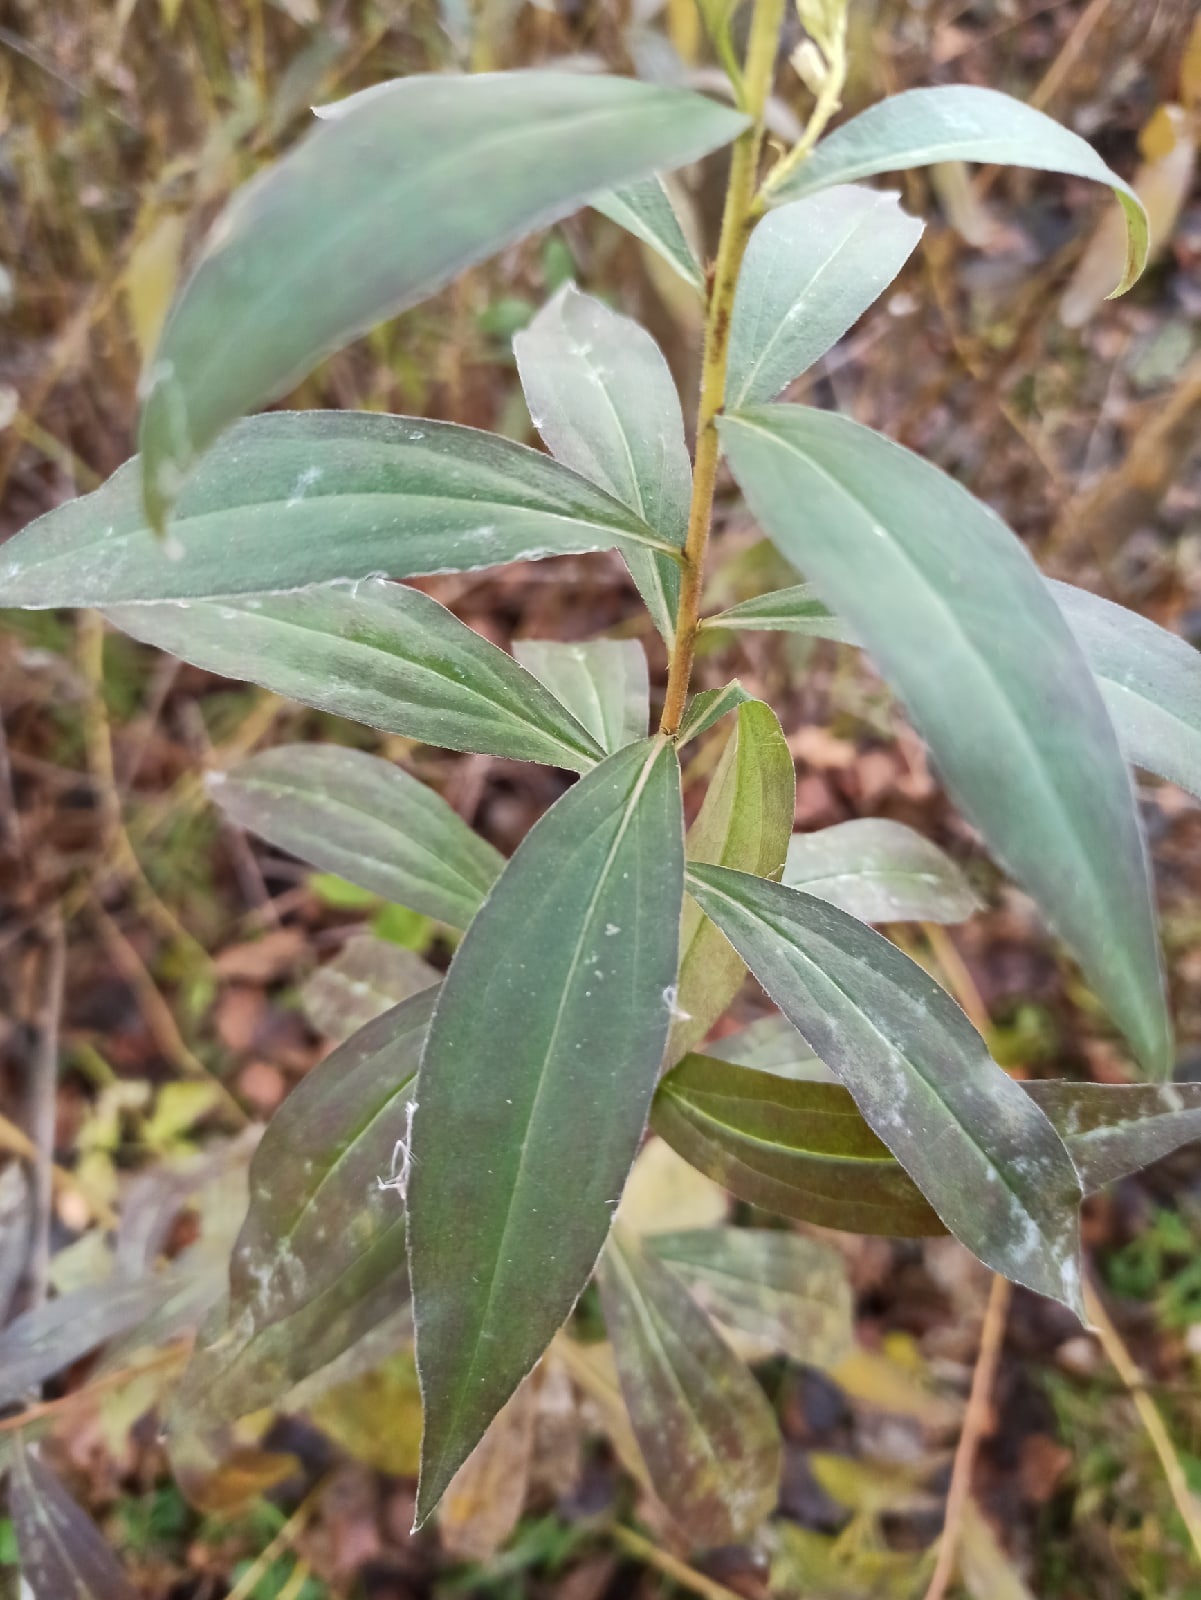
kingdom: Plantae
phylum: Tracheophyta
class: Magnoliopsida
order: Asterales
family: Asteraceae
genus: Solidago
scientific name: Solidago gigantea
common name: Giant goldenrod
